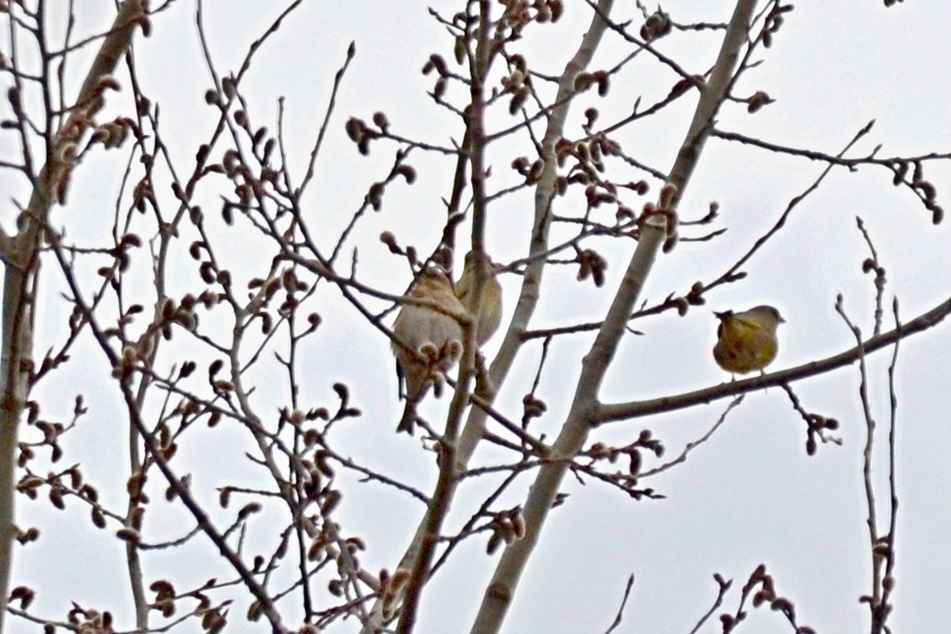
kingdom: Plantae
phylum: Tracheophyta
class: Liliopsida
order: Poales
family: Poaceae
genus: Chloris
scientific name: Chloris chloris
